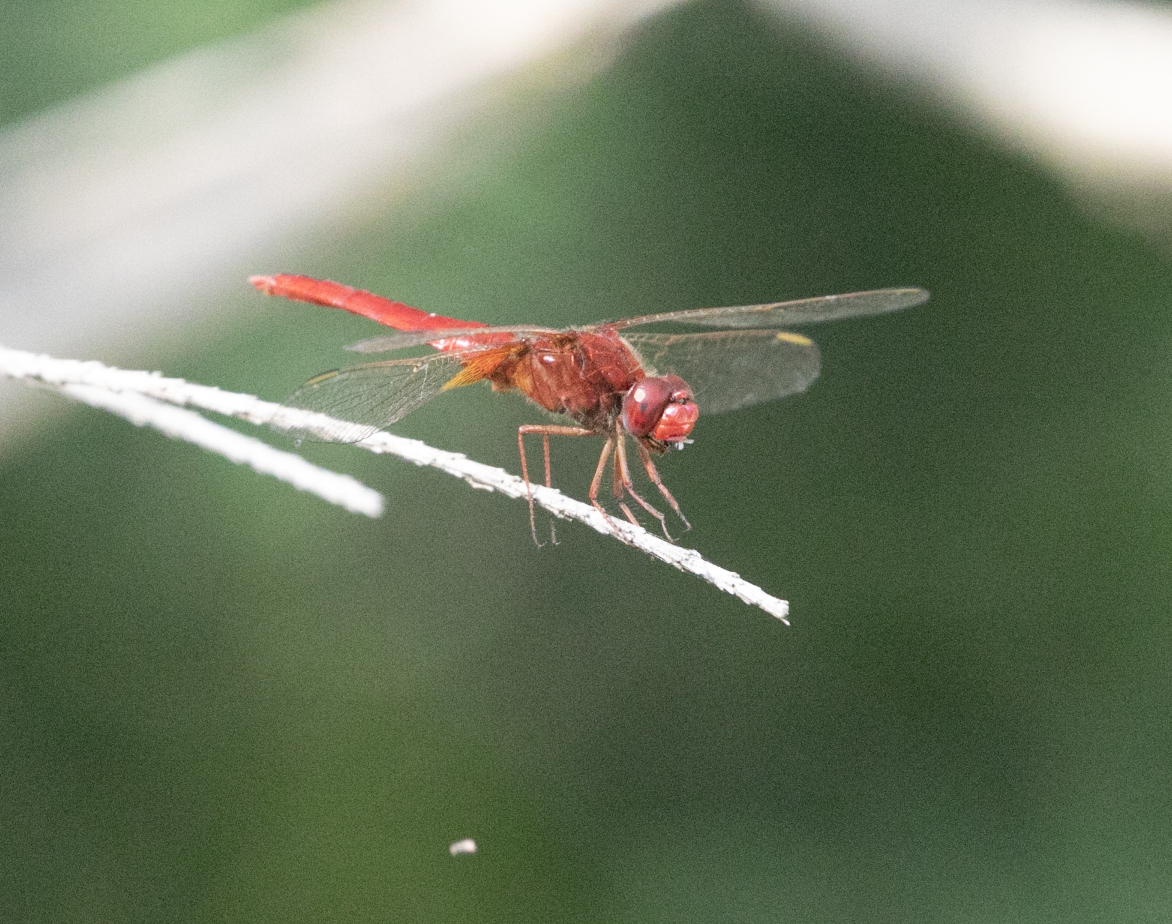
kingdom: Animalia
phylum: Arthropoda
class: Insecta
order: Odonata
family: Libellulidae
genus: Crocothemis
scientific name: Crocothemis erythraea
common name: Scarlet dragonfly
